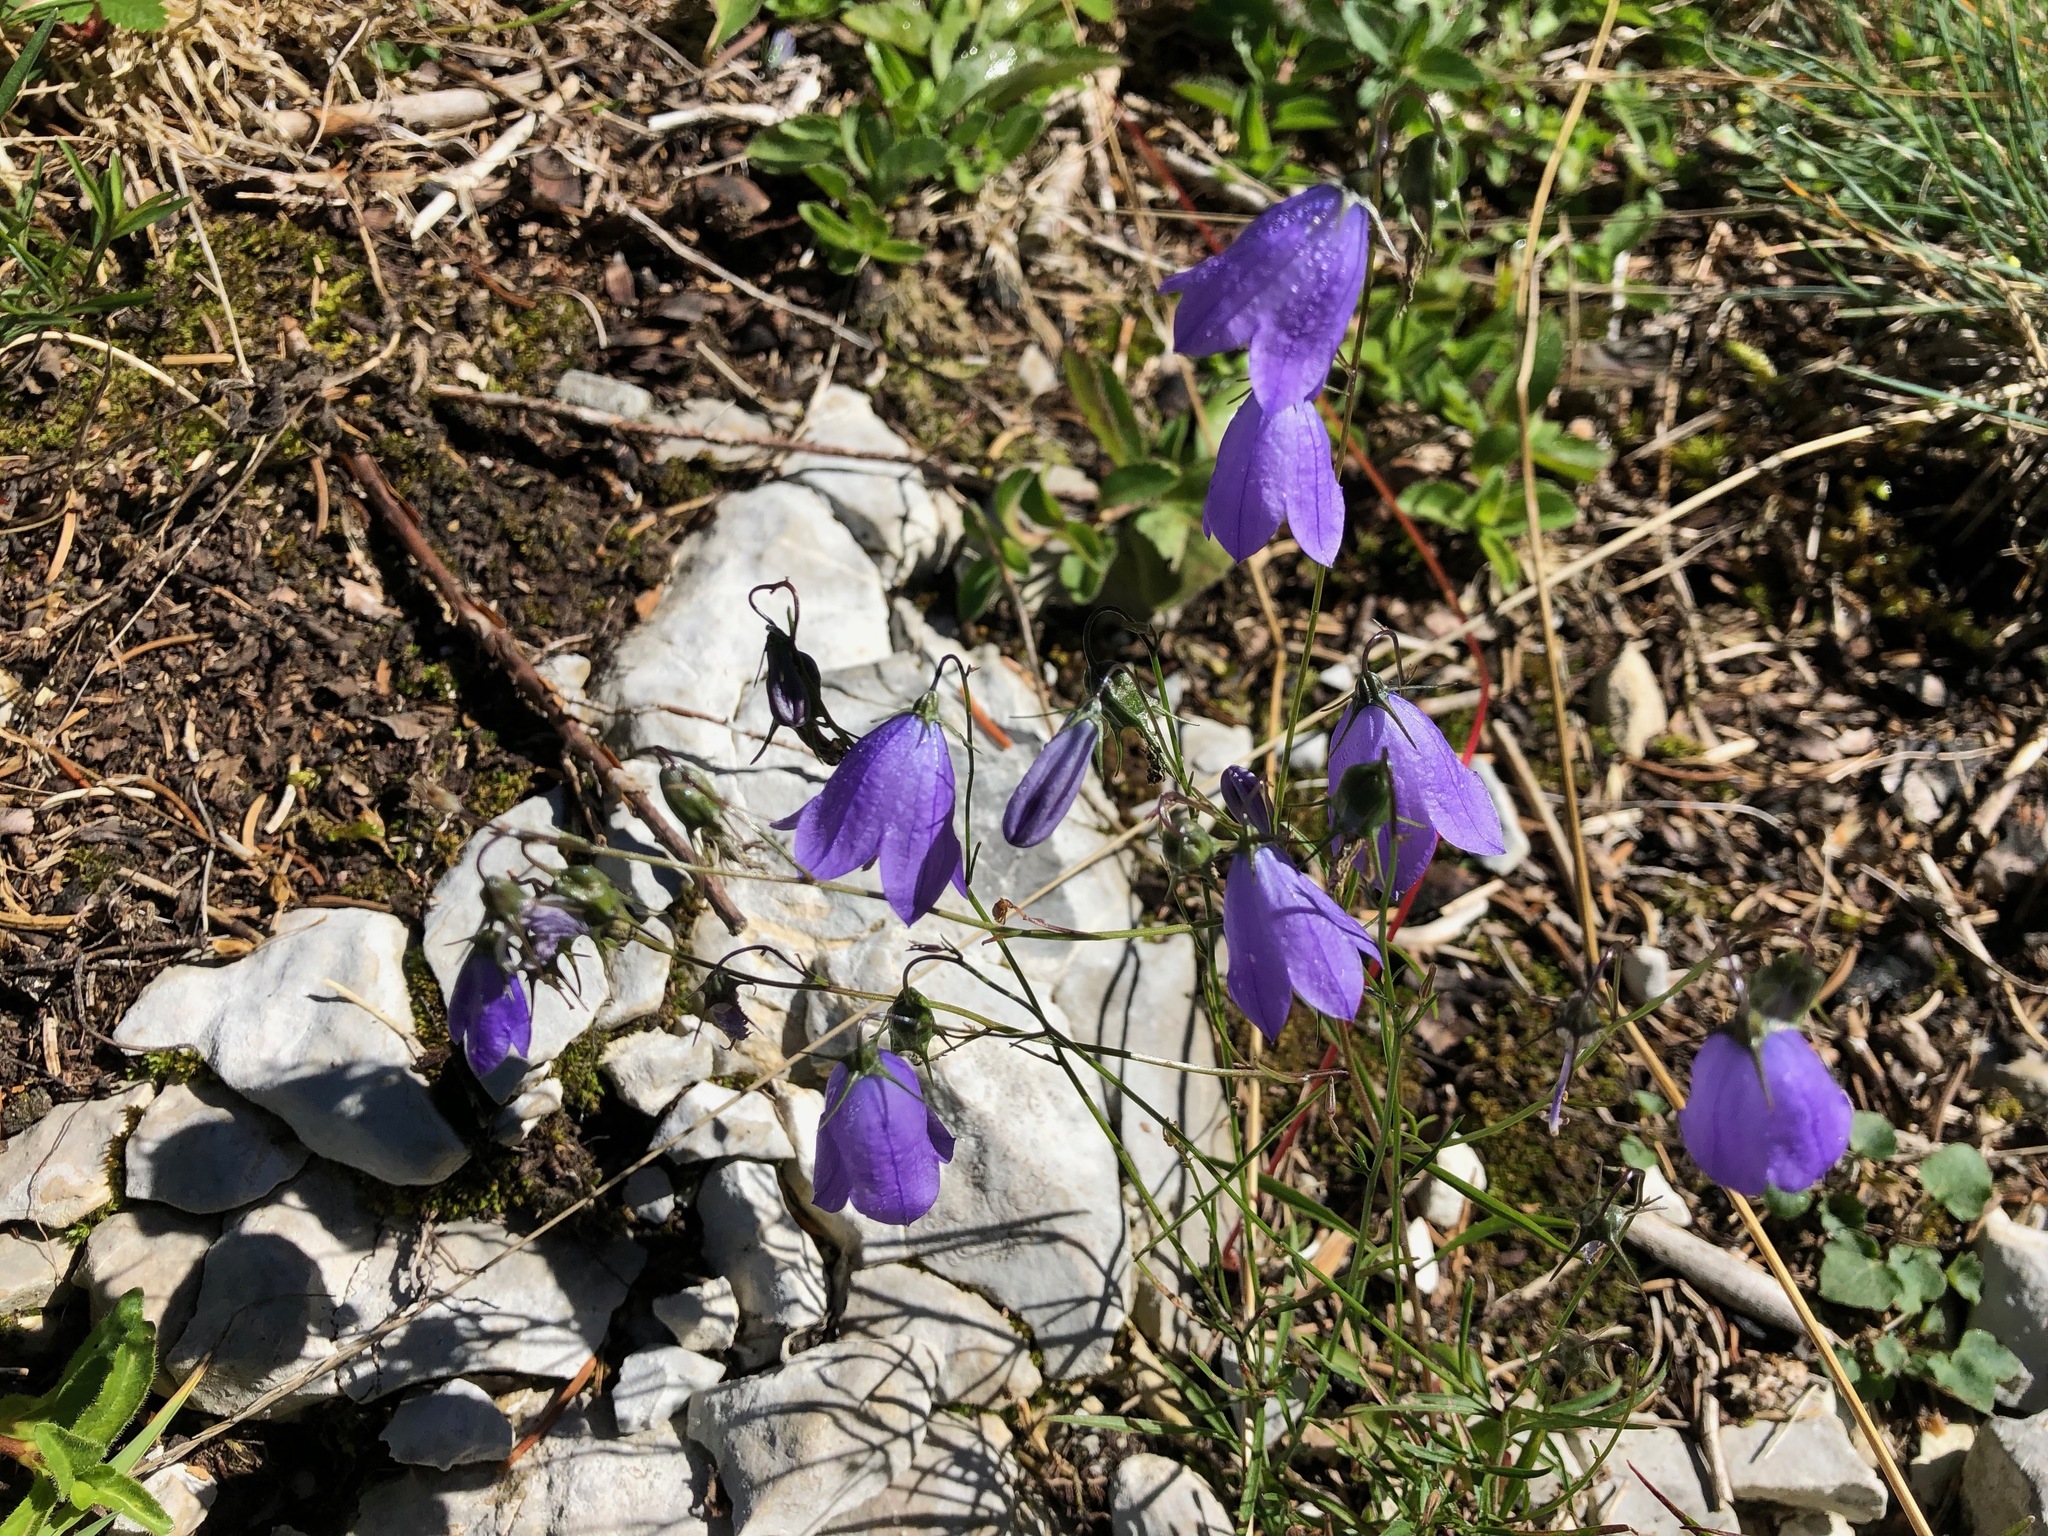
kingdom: Plantae
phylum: Tracheophyta
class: Magnoliopsida
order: Asterales
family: Campanulaceae
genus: Campanula
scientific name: Campanula rotundifolia
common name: Harebell
